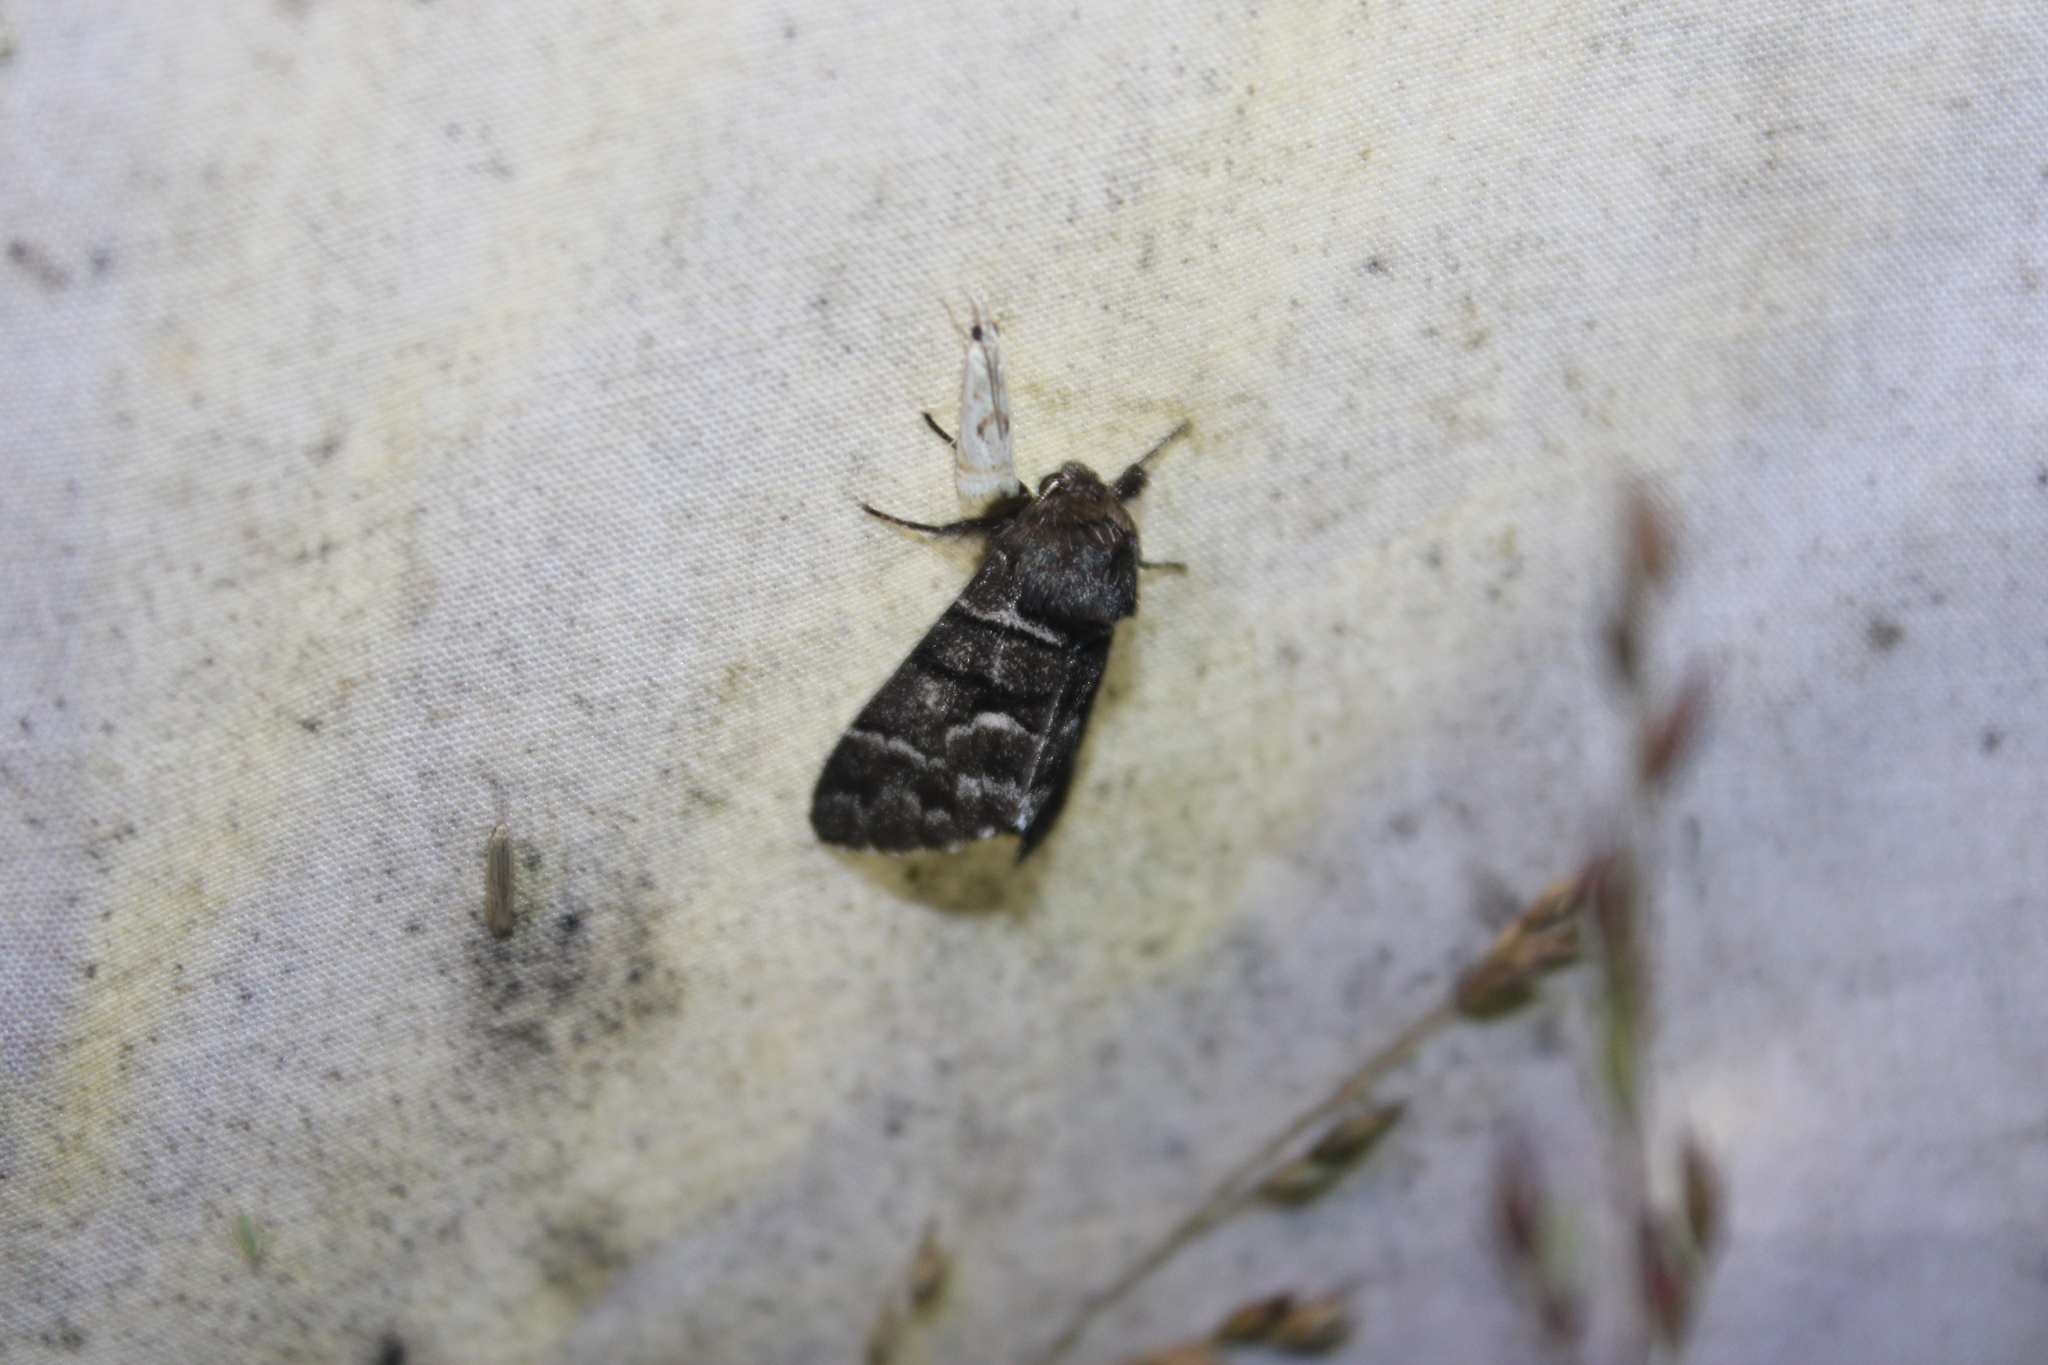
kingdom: Animalia
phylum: Arthropoda
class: Insecta
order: Lepidoptera
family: Noctuidae
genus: Panthea
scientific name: Panthea furcilla
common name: Eastern panthea moth
